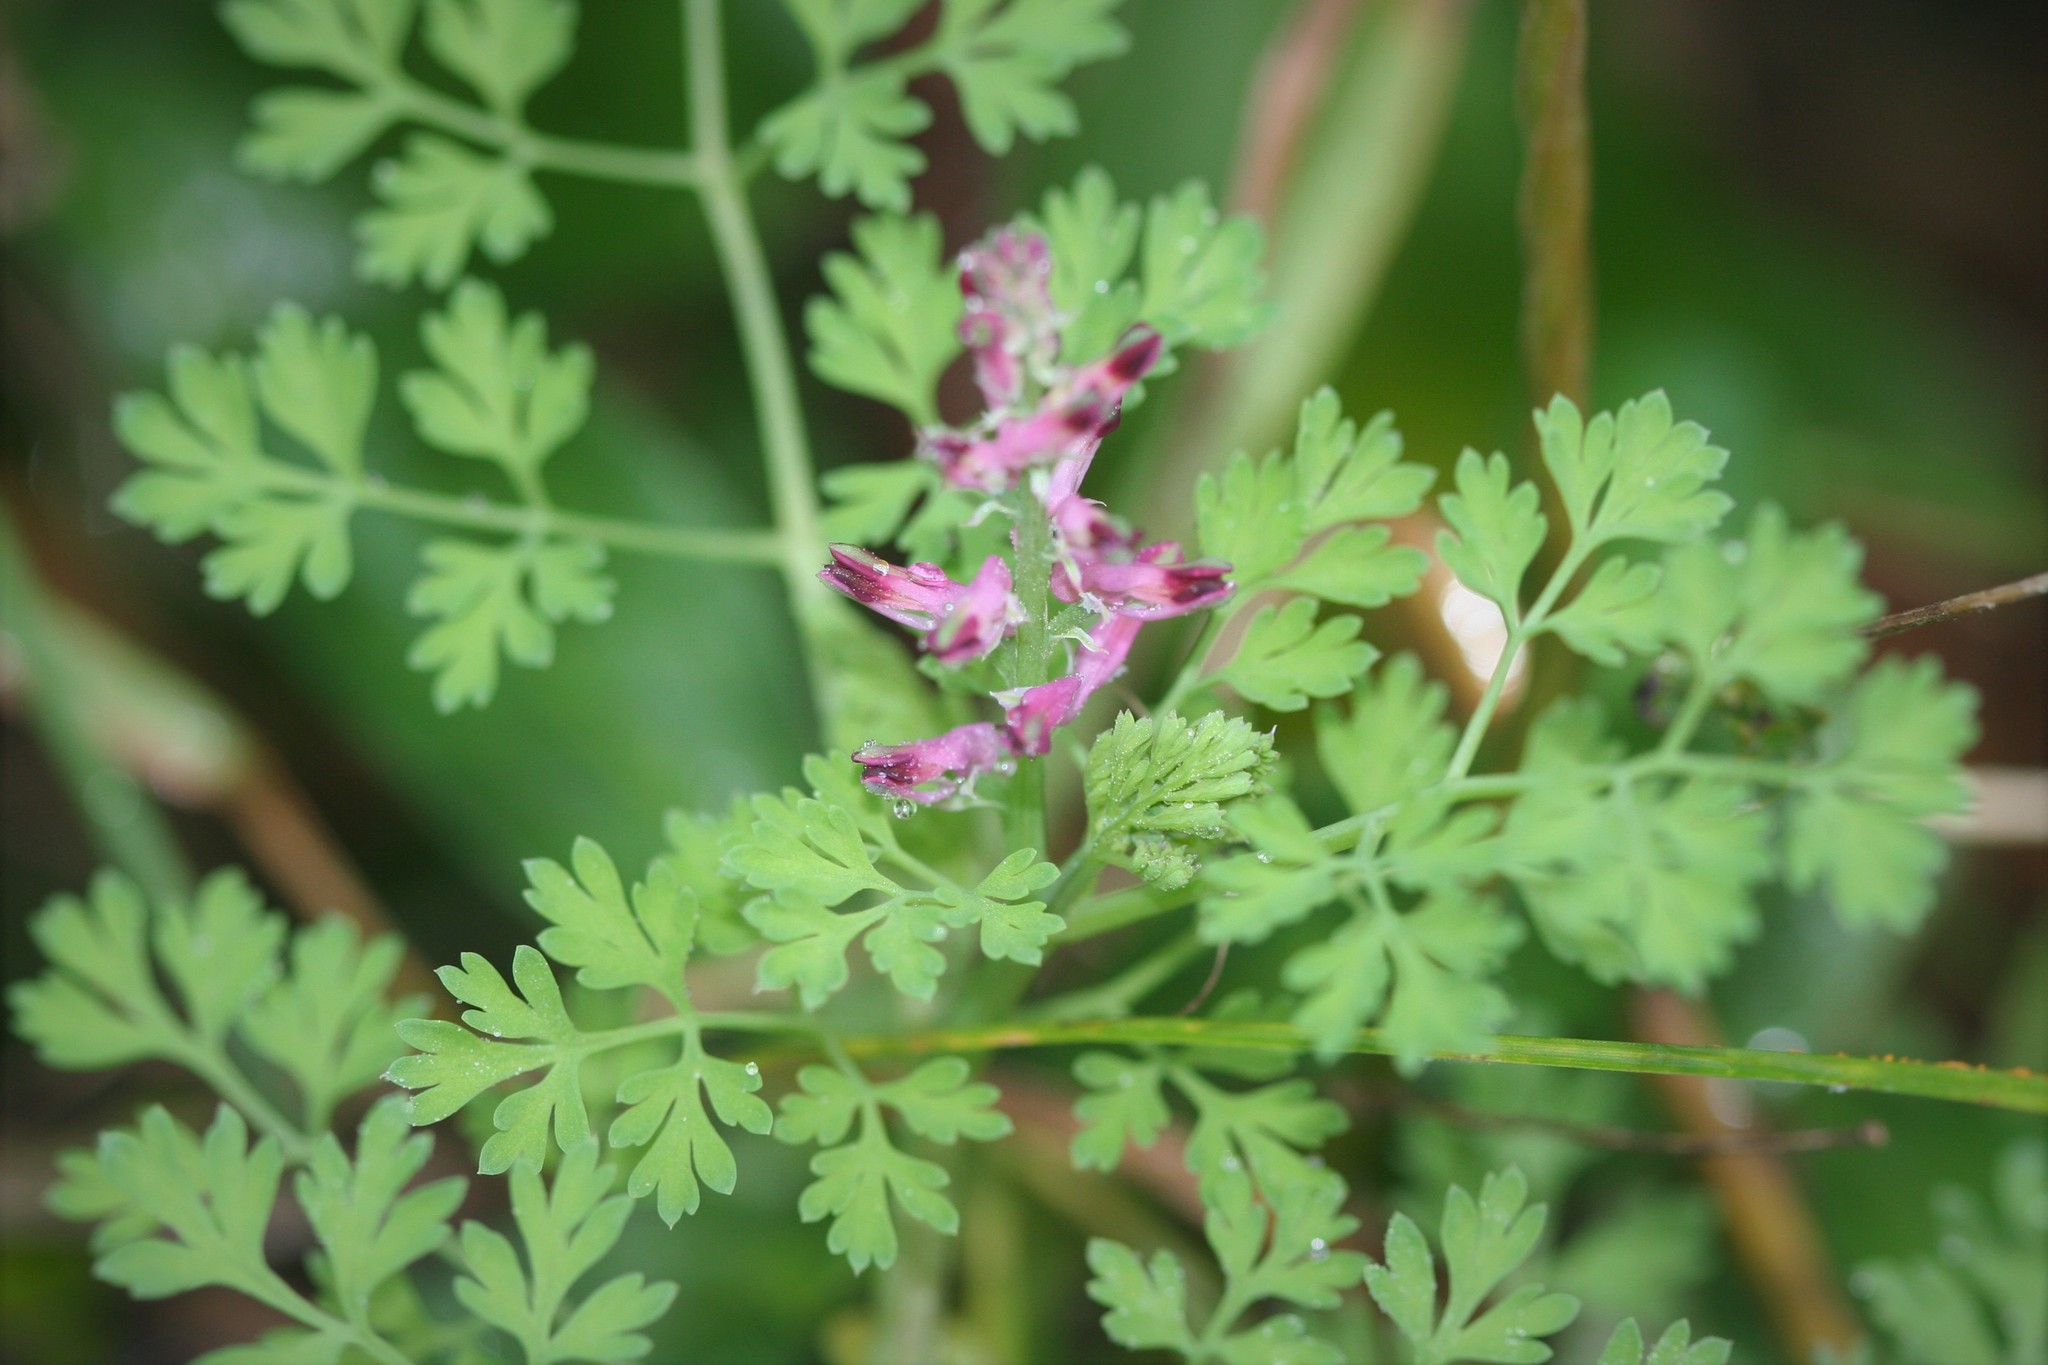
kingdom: Plantae
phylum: Tracheophyta
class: Magnoliopsida
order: Ranunculales
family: Papaveraceae
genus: Fumaria
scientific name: Fumaria officinalis
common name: Common fumitory
